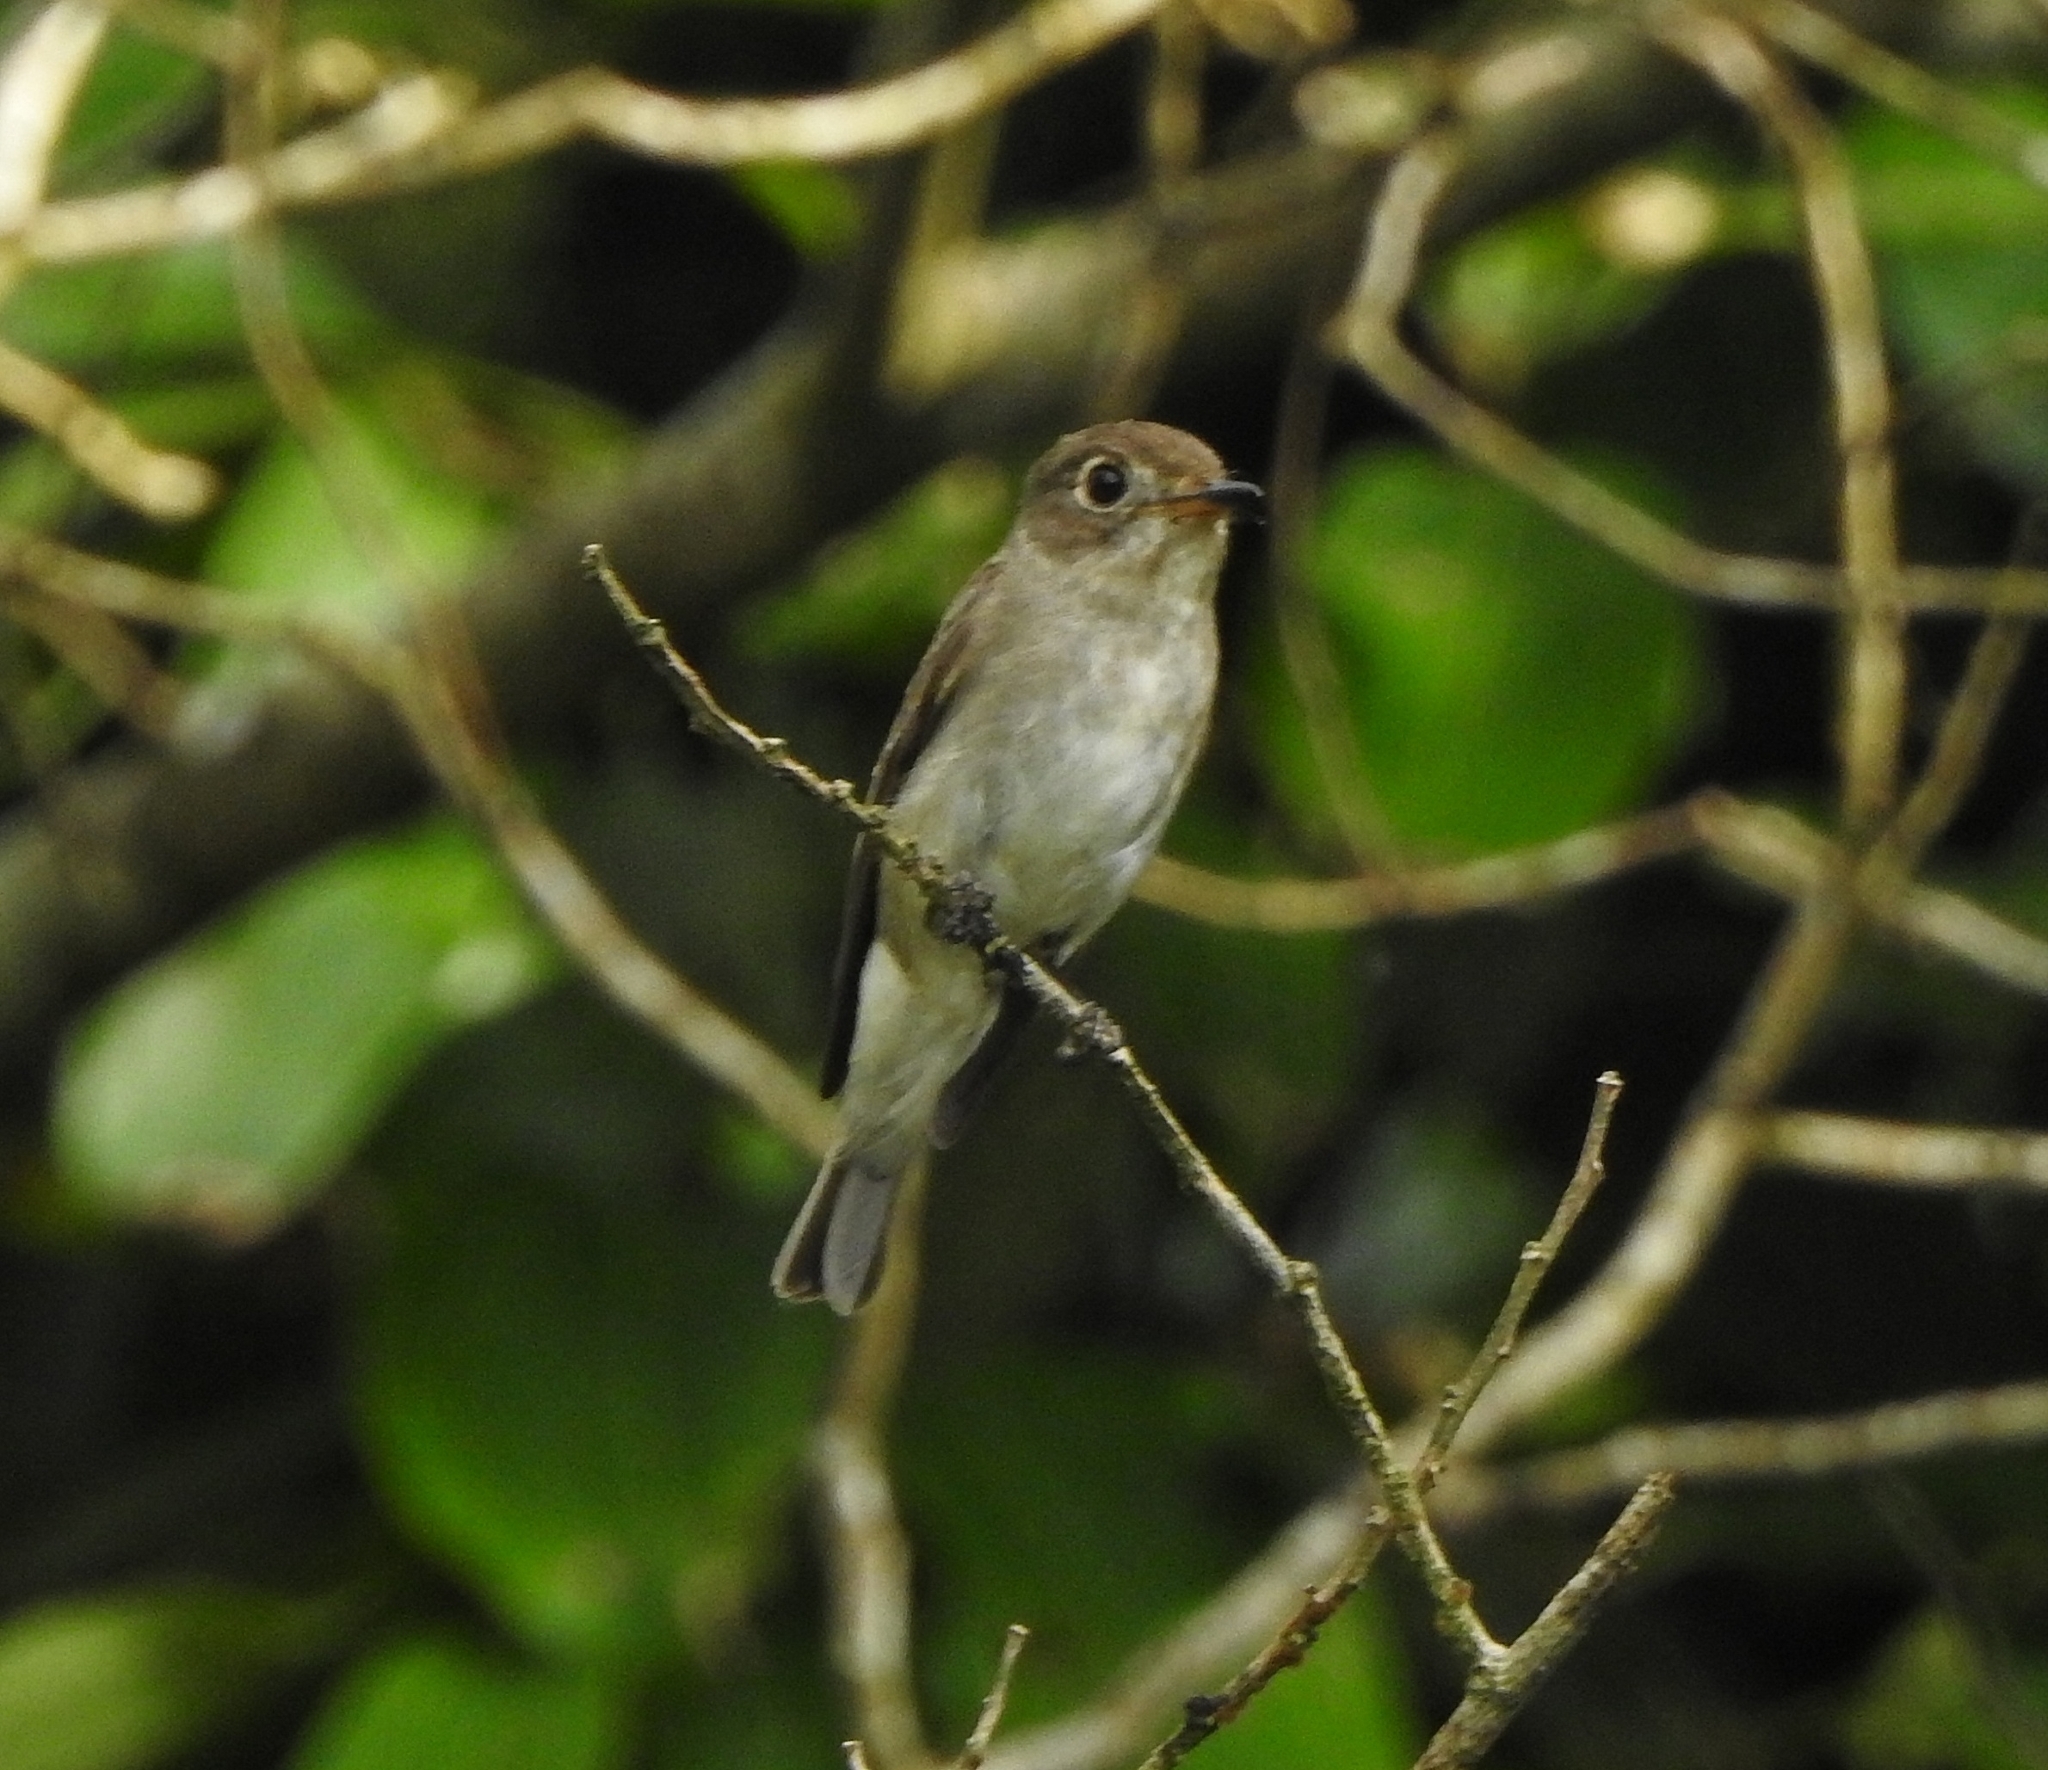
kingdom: Animalia
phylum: Chordata
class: Aves
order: Passeriformes
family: Muscicapidae
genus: Muscicapa
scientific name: Muscicapa latirostris
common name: Asian brown flycatcher
